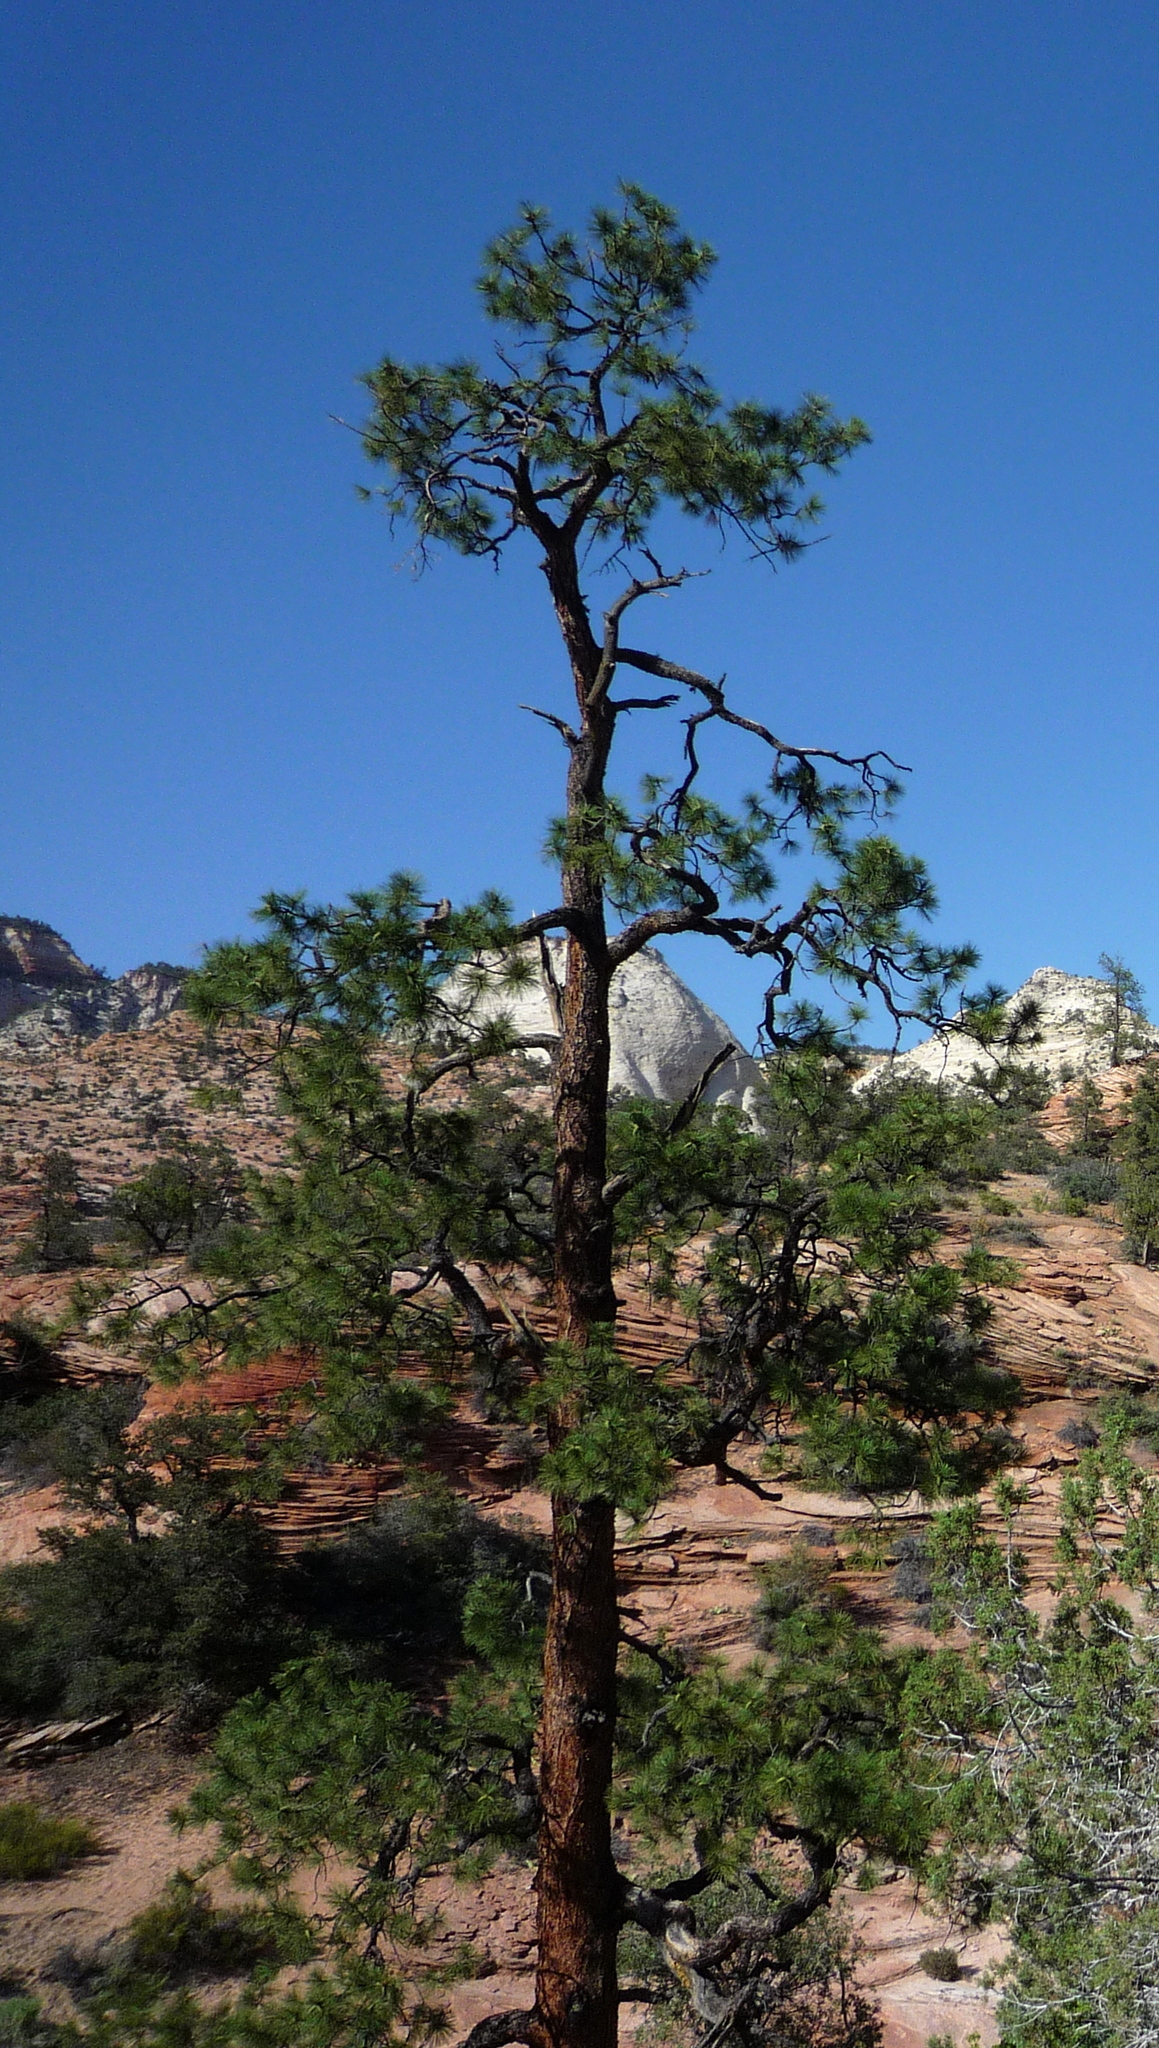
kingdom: Plantae
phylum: Tracheophyta
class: Pinopsida
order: Pinales
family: Pinaceae
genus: Pinus
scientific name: Pinus ponderosa
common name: Western yellow-pine
